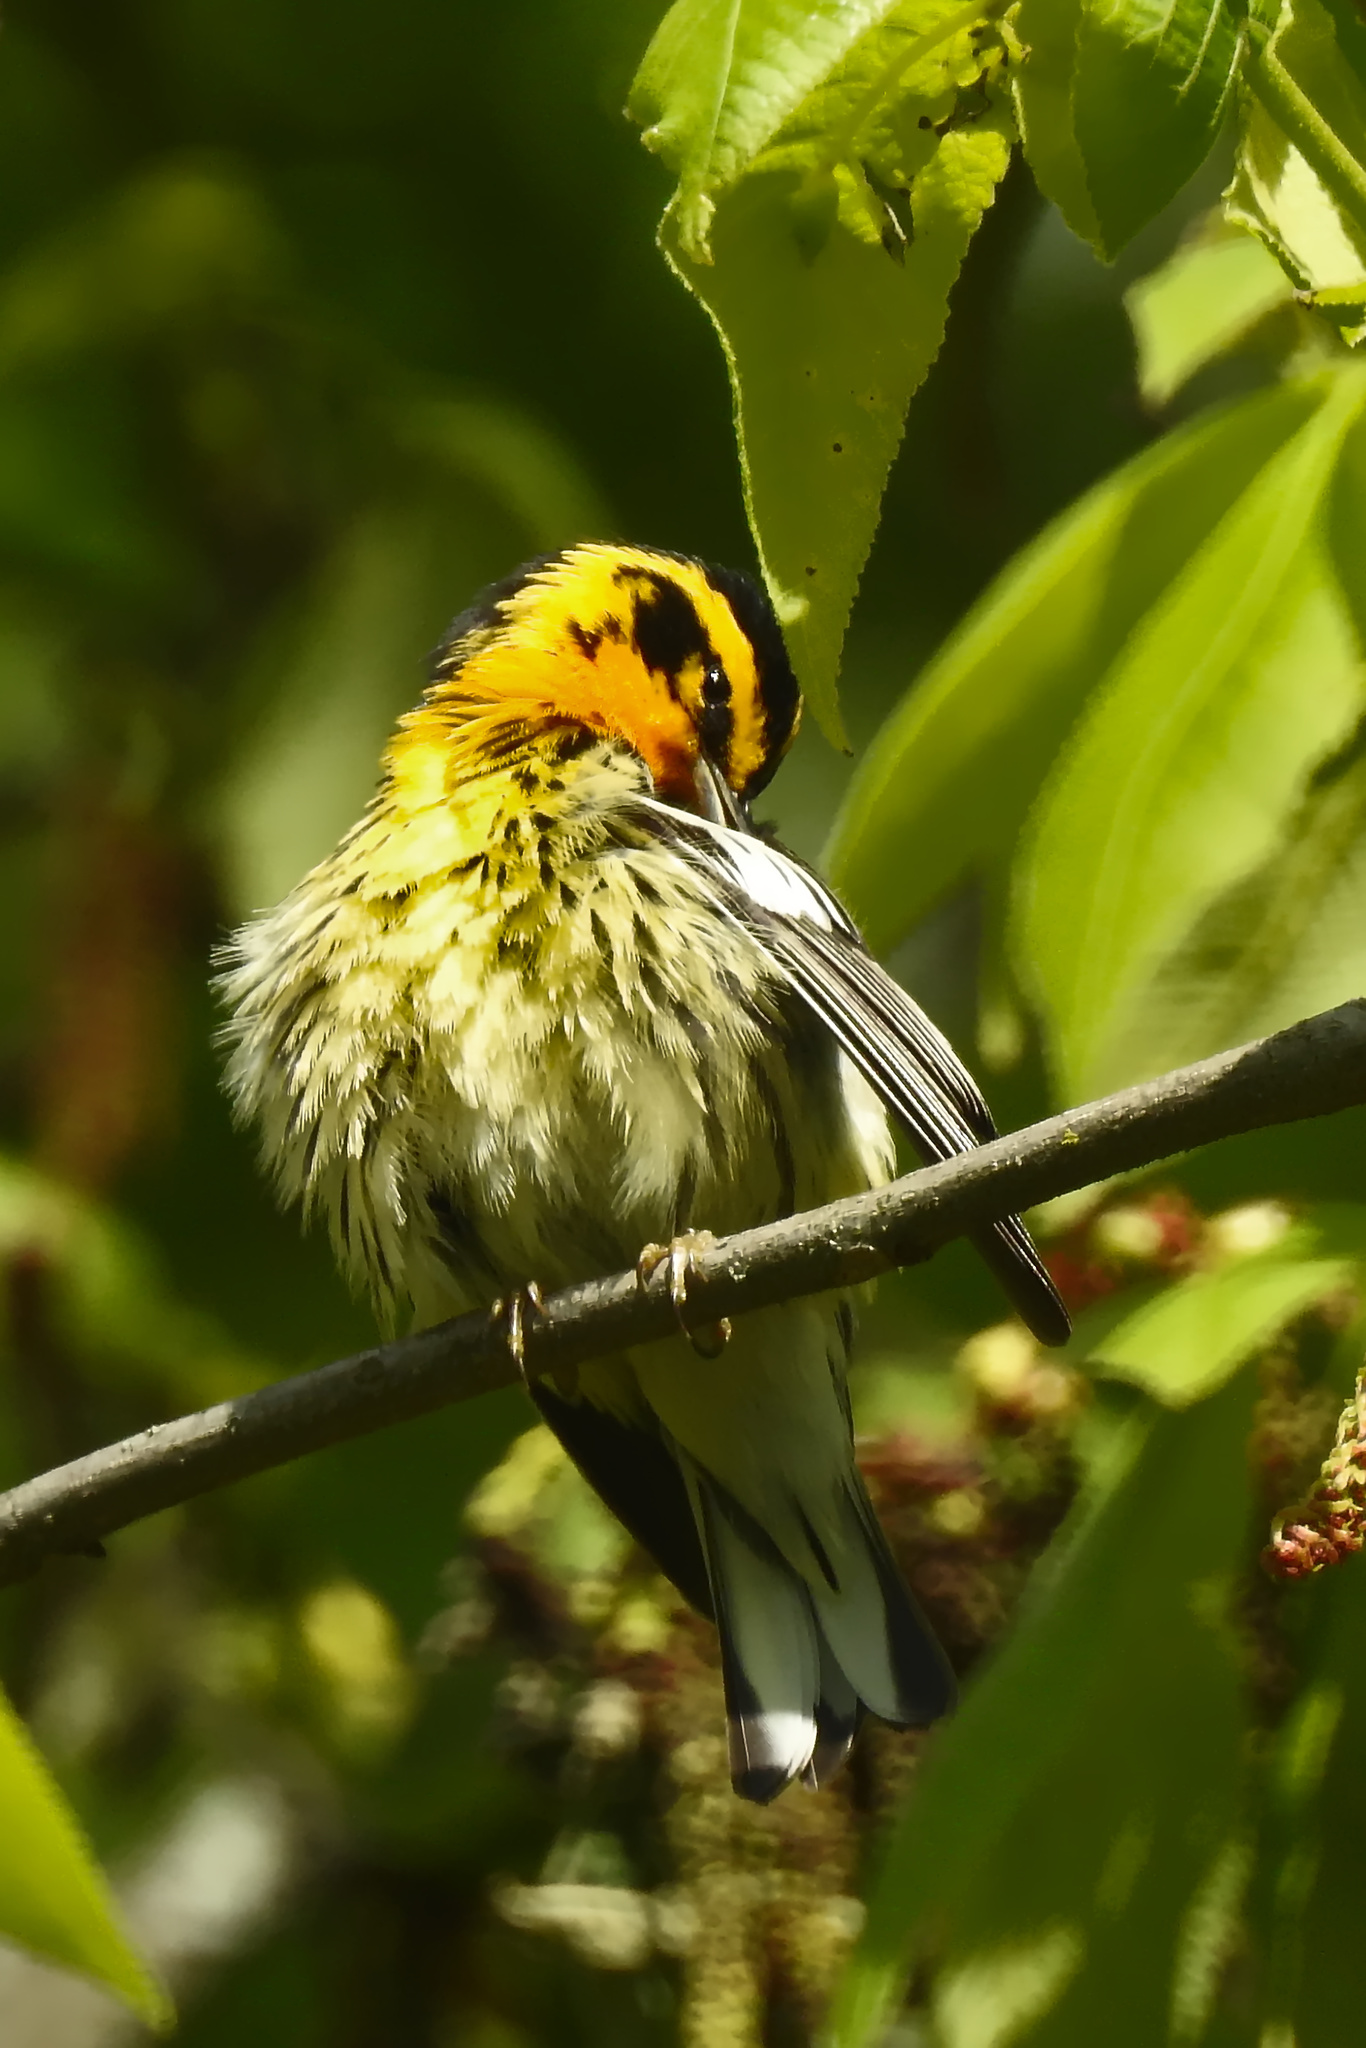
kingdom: Animalia
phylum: Chordata
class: Aves
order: Passeriformes
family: Parulidae
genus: Setophaga
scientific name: Setophaga fusca
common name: Blackburnian warbler
